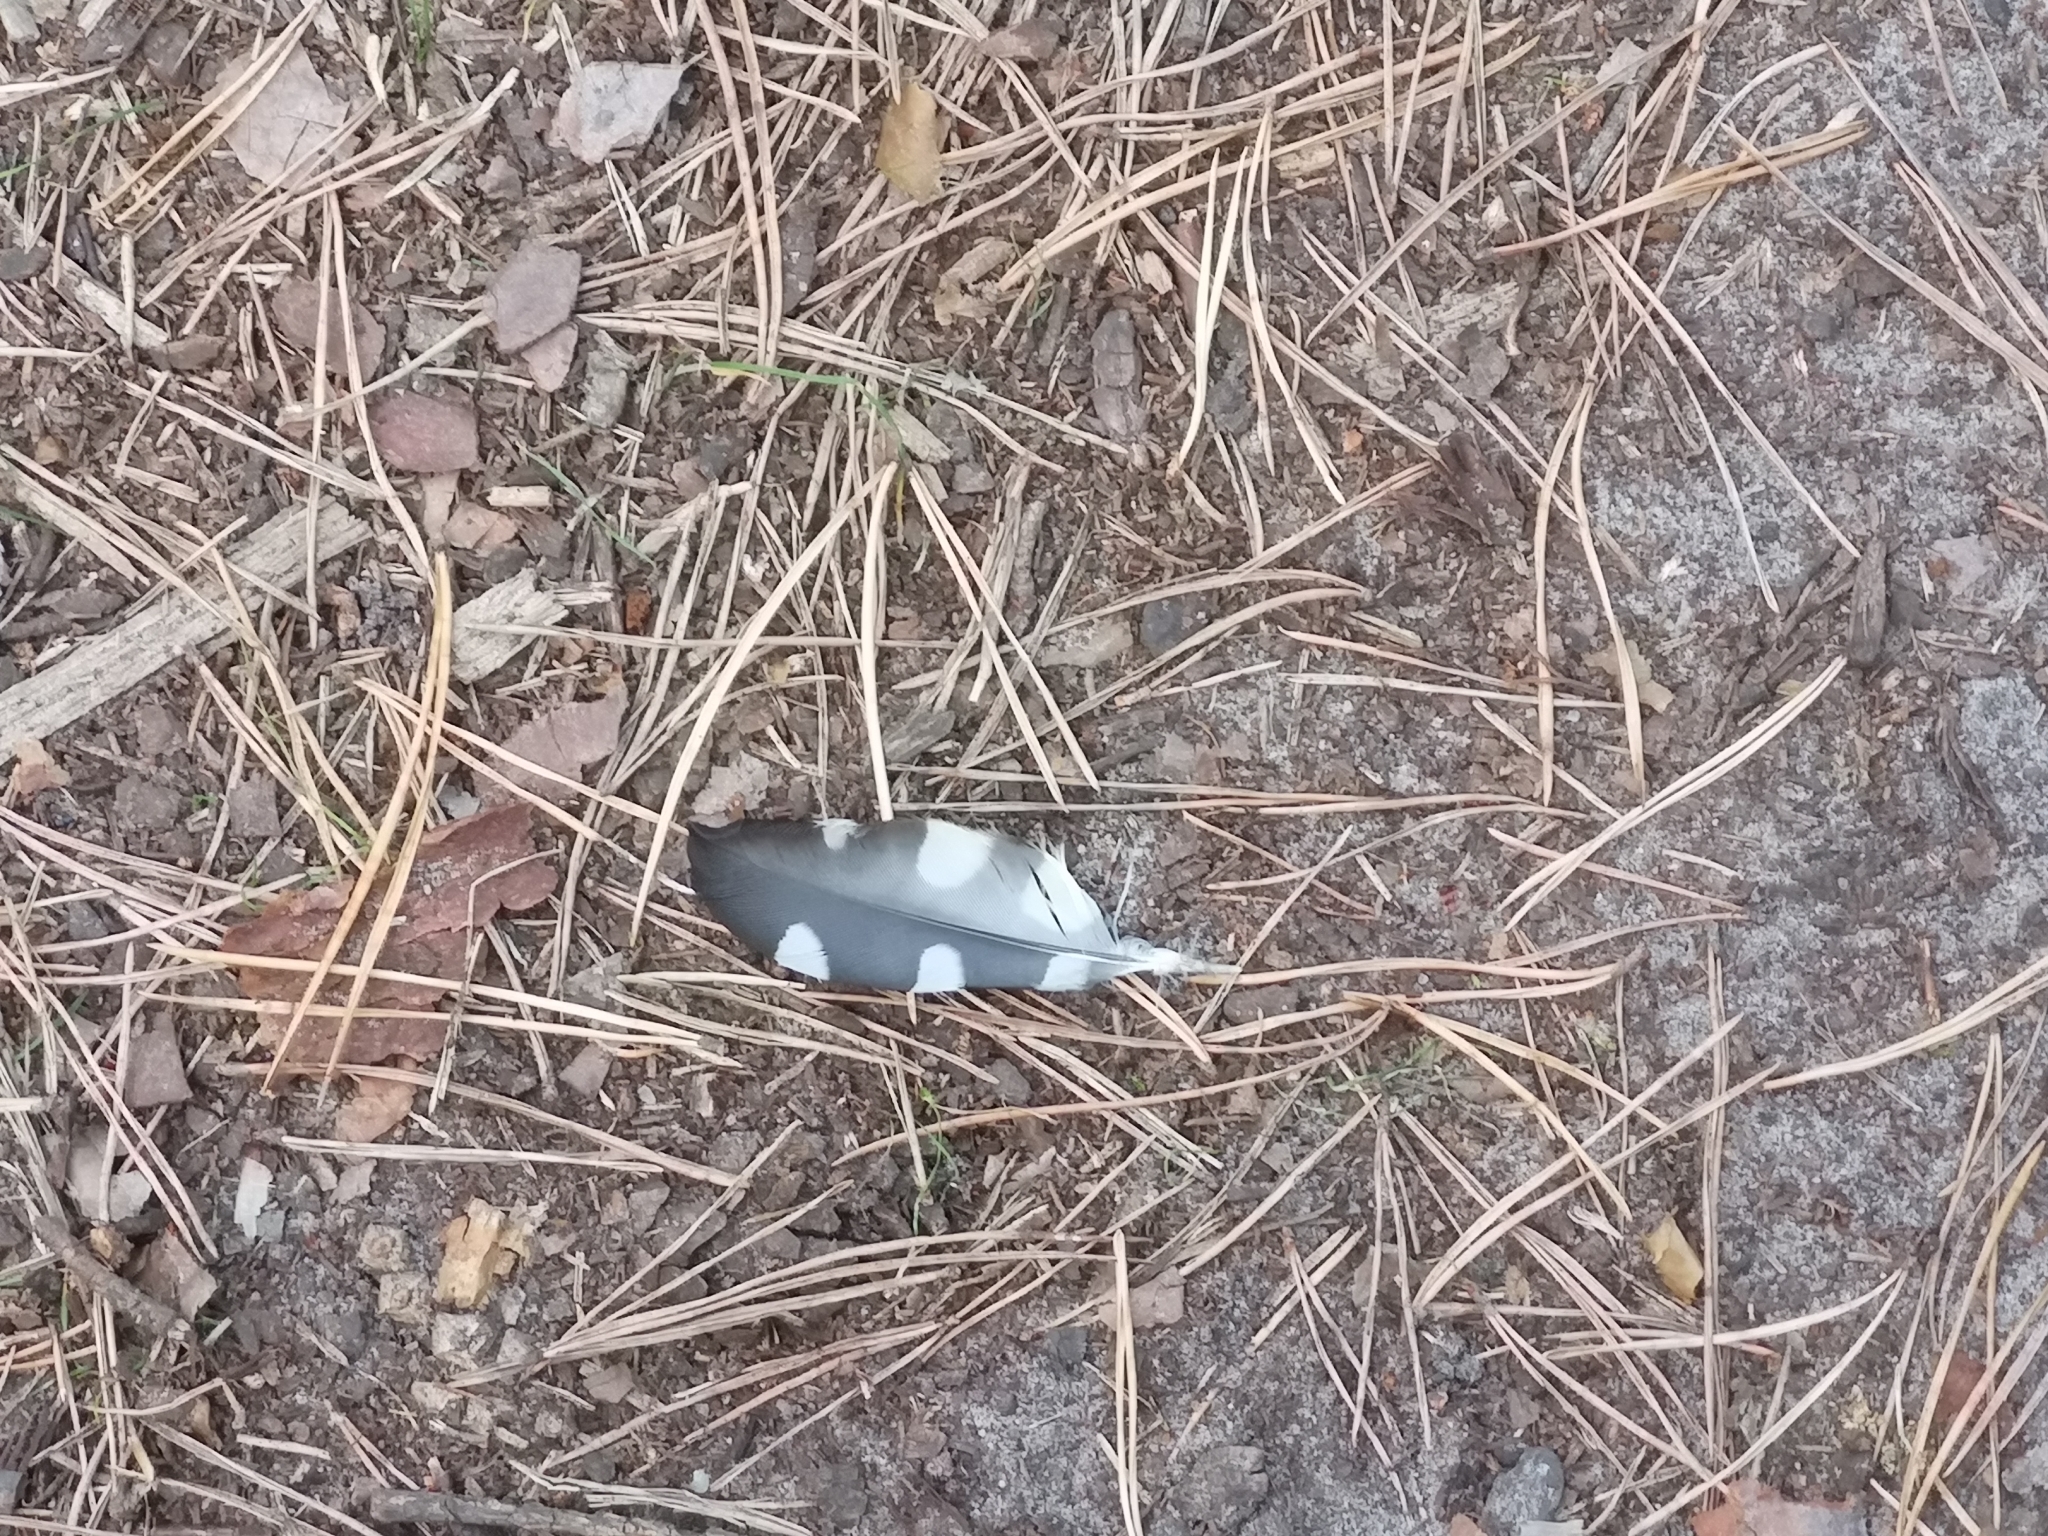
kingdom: Animalia
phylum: Chordata
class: Aves
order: Piciformes
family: Picidae
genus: Dendrocopos
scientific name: Dendrocopos major
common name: Great spotted woodpecker
